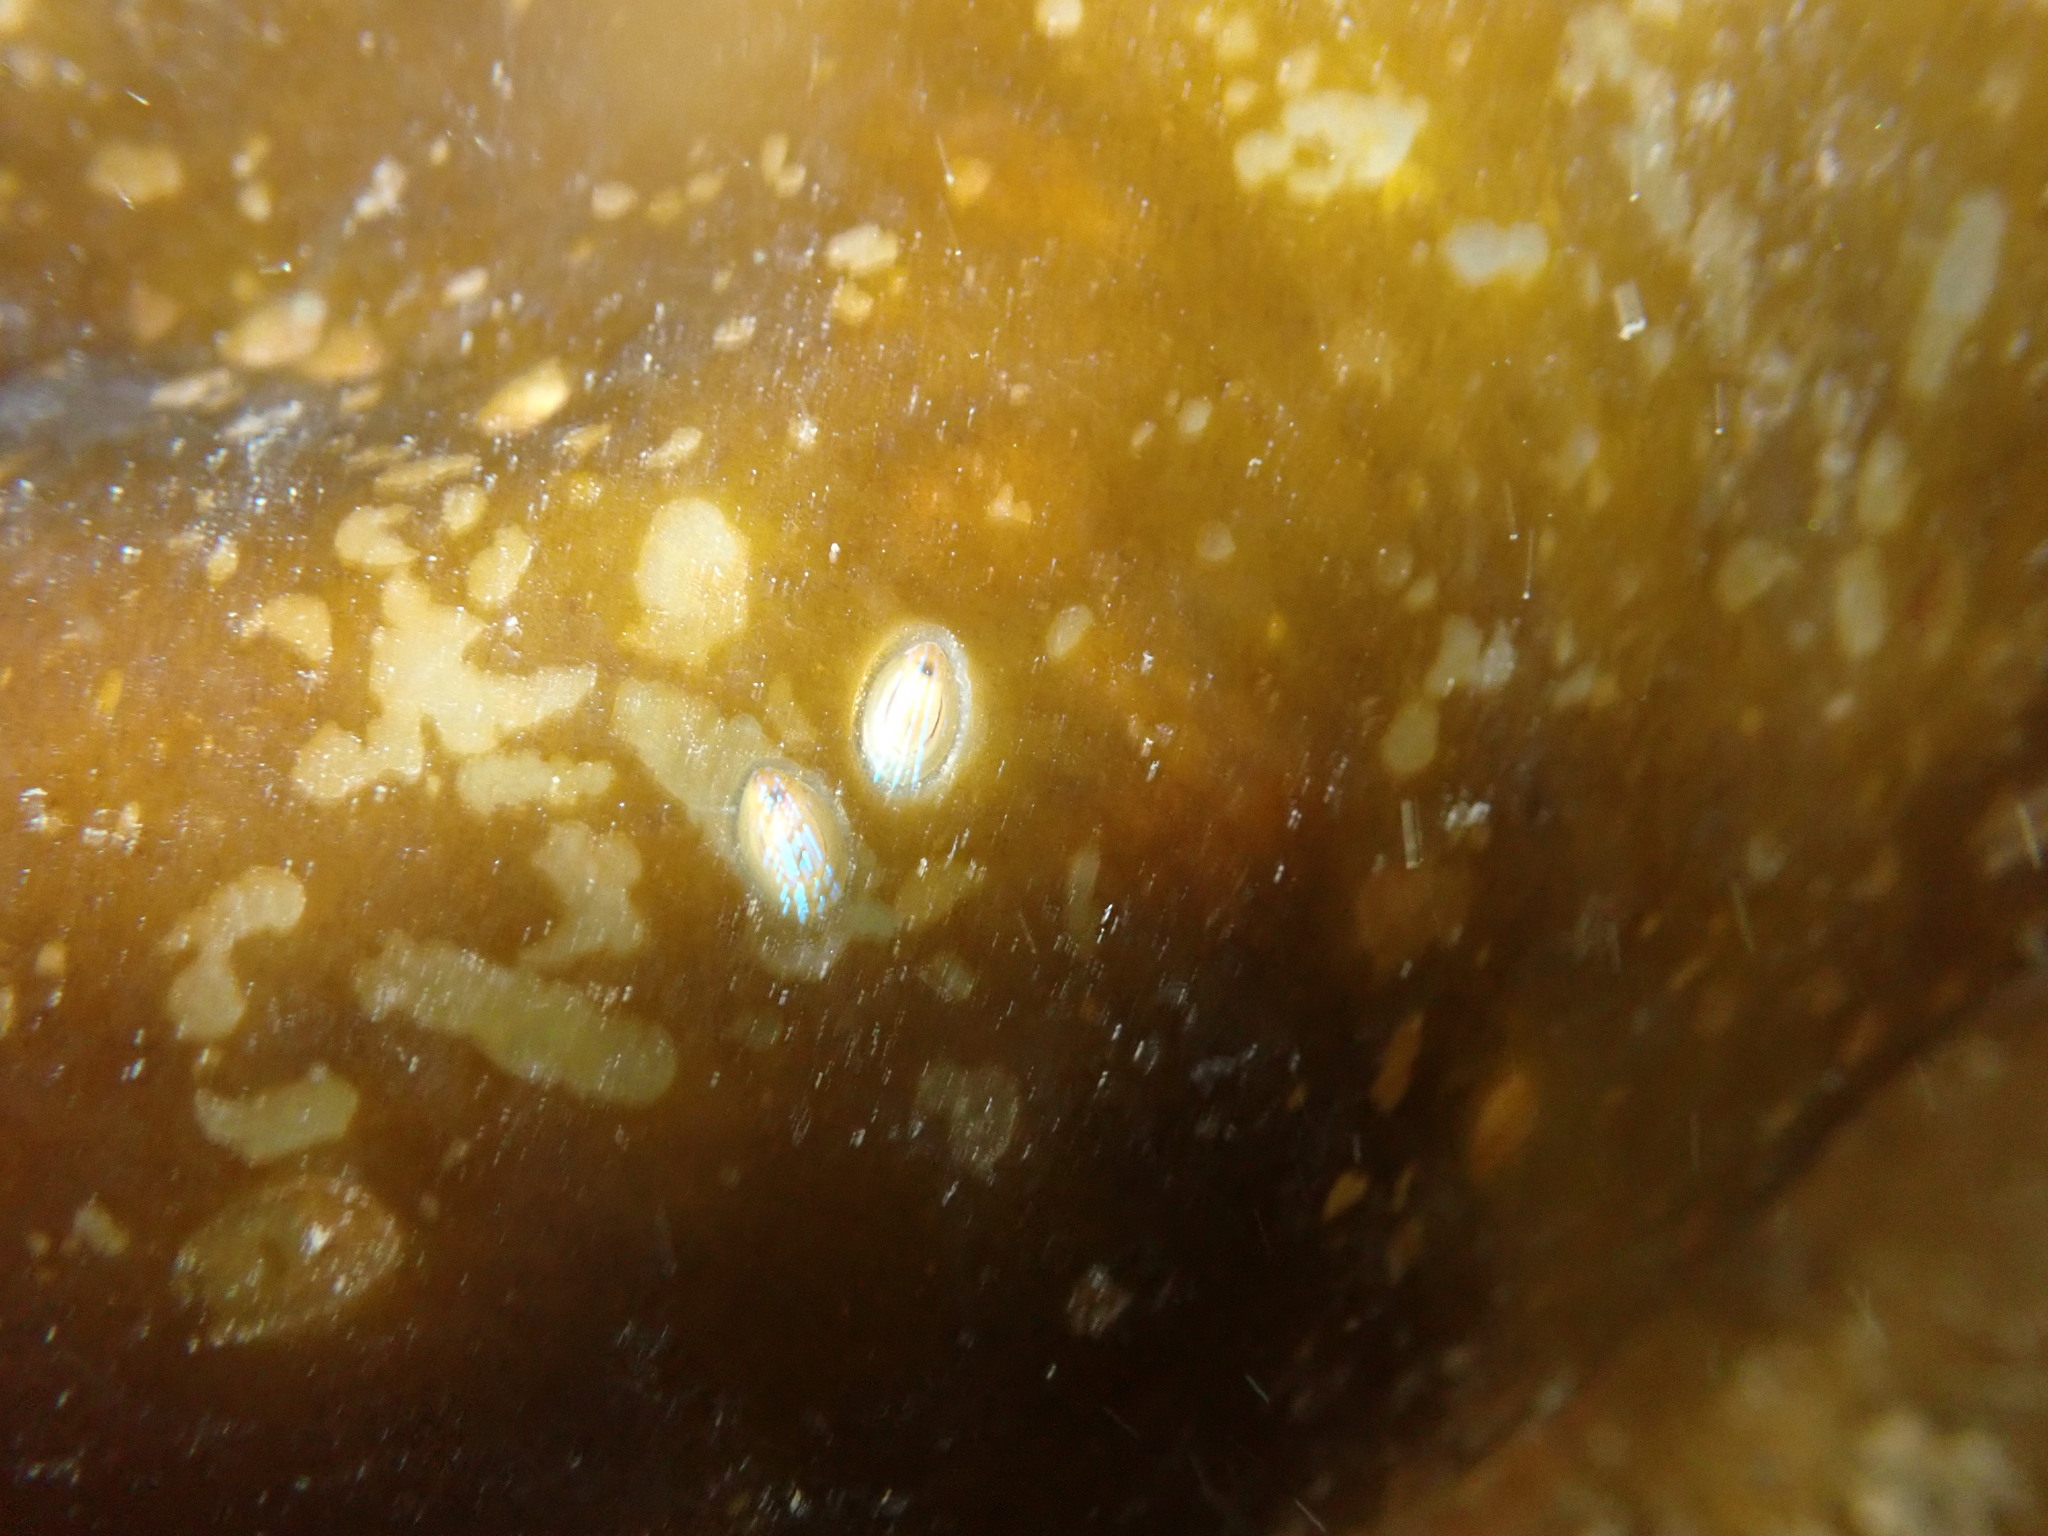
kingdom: Animalia
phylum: Mollusca
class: Gastropoda
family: Patellidae
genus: Patella
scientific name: Patella pellucida
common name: Blue-rayed limpet
